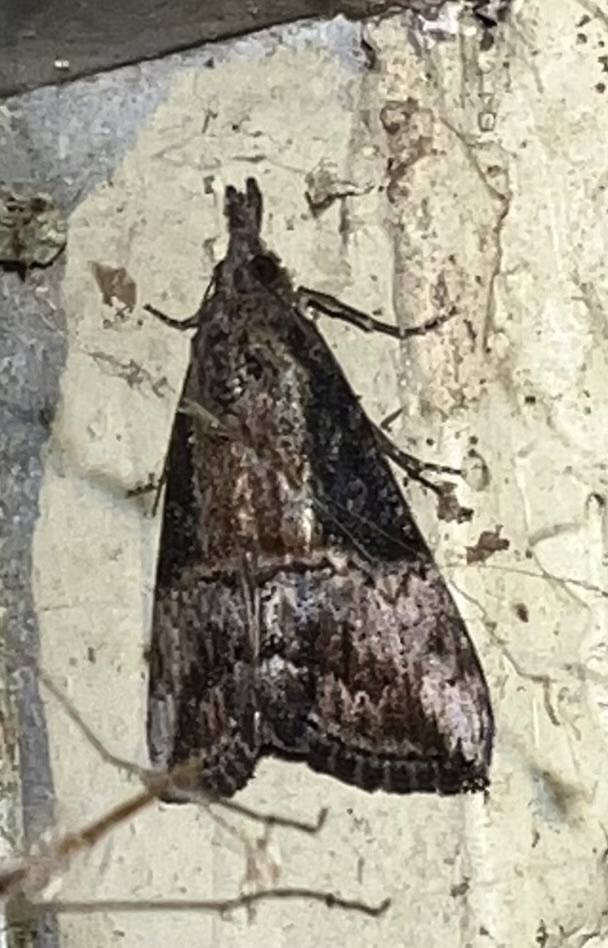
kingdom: Animalia
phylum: Arthropoda
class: Insecta
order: Lepidoptera
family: Erebidae
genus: Hypena
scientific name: Hypena scabra
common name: Green cloverworm
